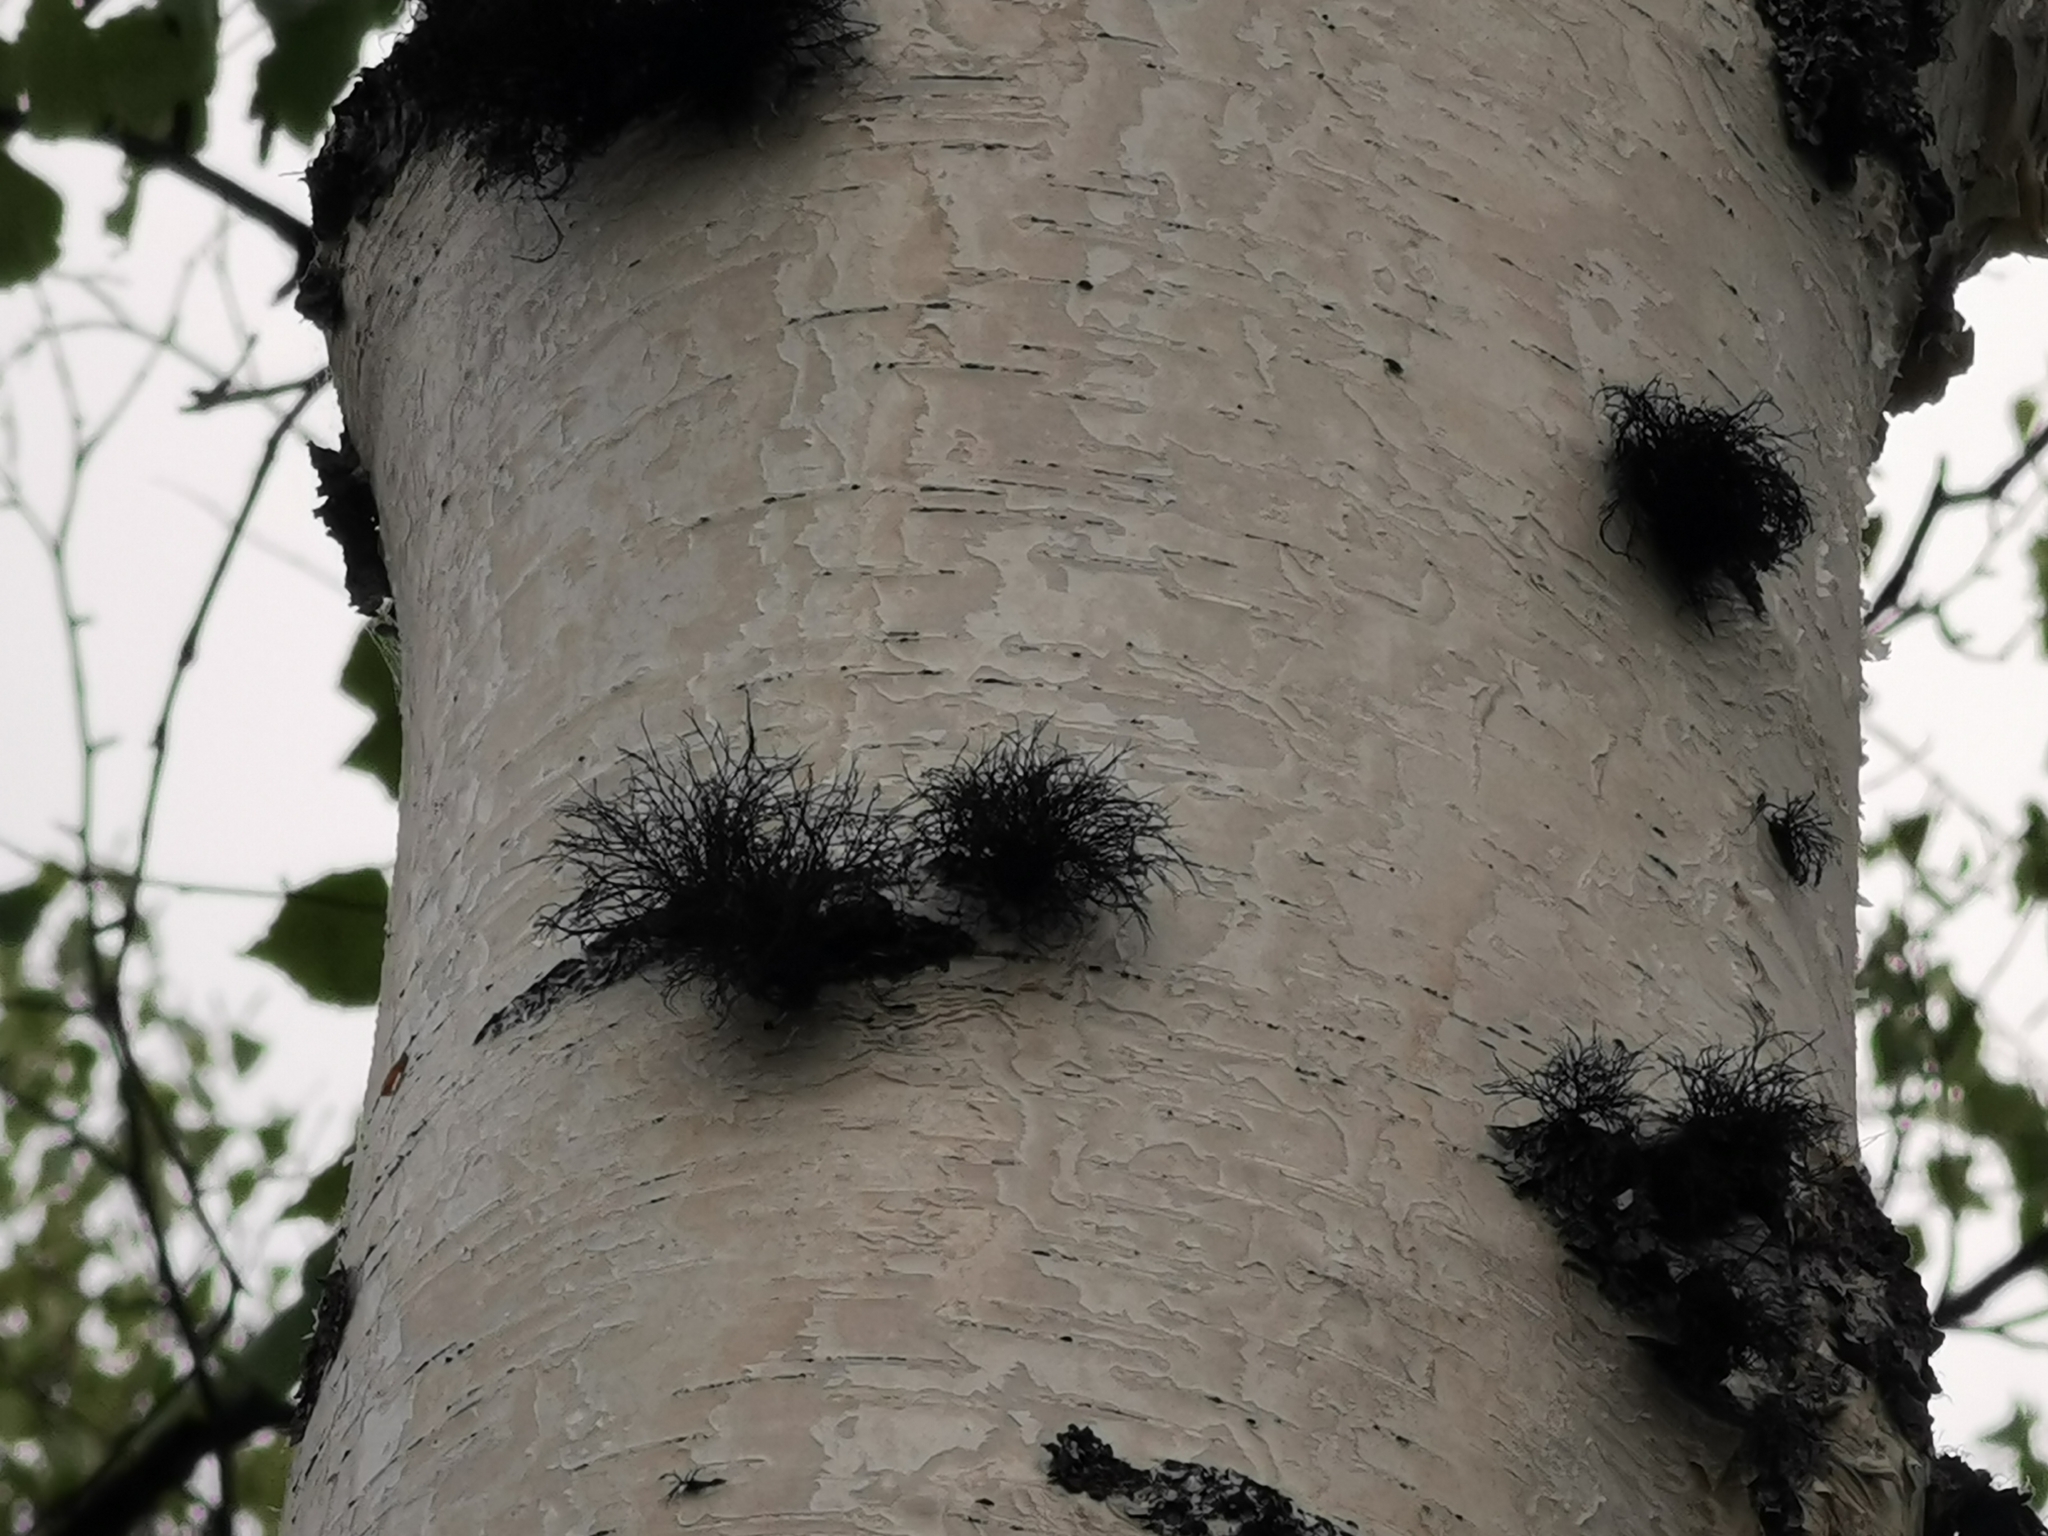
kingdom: Fungi
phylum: Ascomycota
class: Sordariomycetes
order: Xylariales
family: Hypoxylaceae
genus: Daldinia
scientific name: Daldinia loculata
